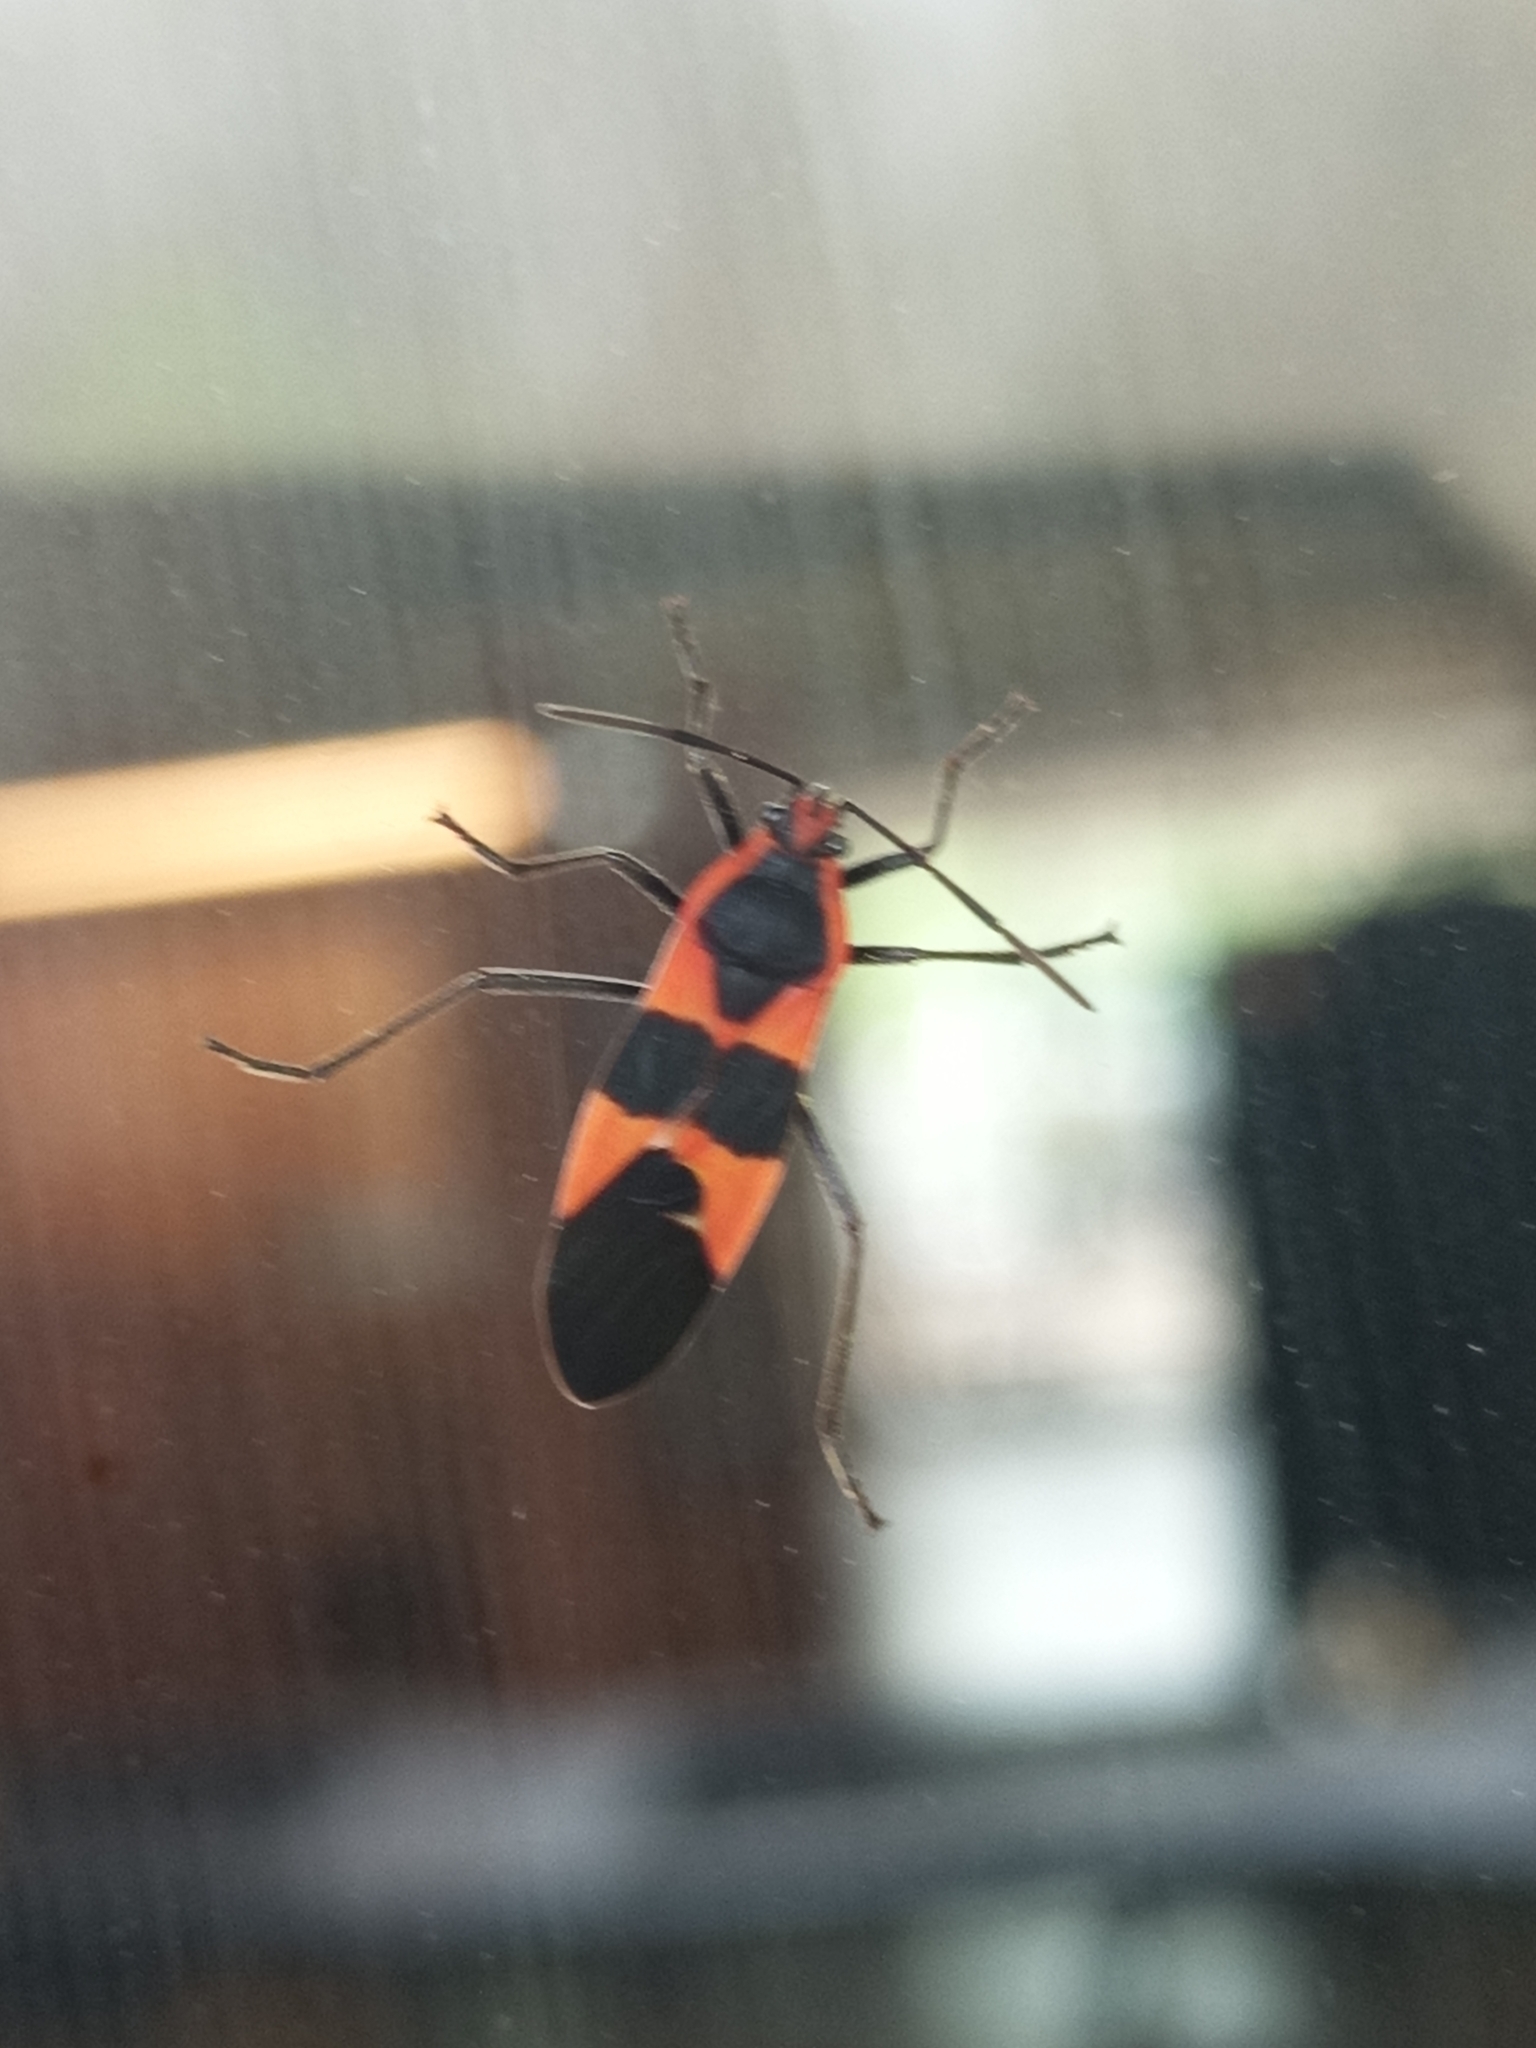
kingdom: Animalia
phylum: Arthropoda
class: Insecta
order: Hemiptera
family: Lygaeidae
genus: Oncopeltus
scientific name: Oncopeltus fasciatus
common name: Large milkweed bug
